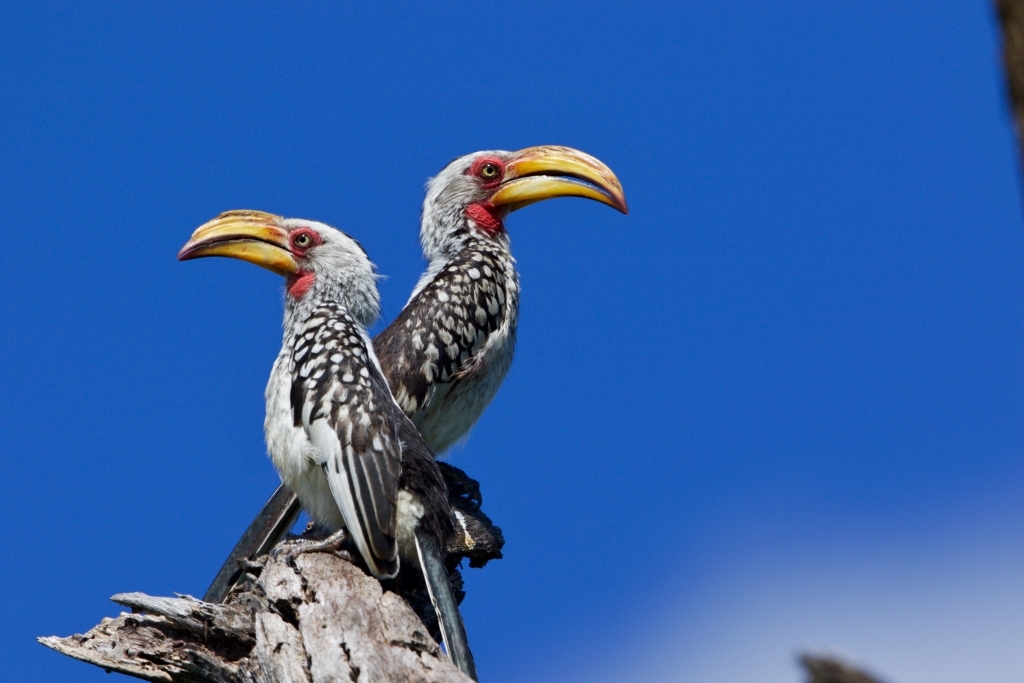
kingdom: Animalia
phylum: Chordata
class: Aves
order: Bucerotiformes
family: Bucerotidae
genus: Tockus
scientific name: Tockus leucomelas
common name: Southern yellow-billed hornbill
